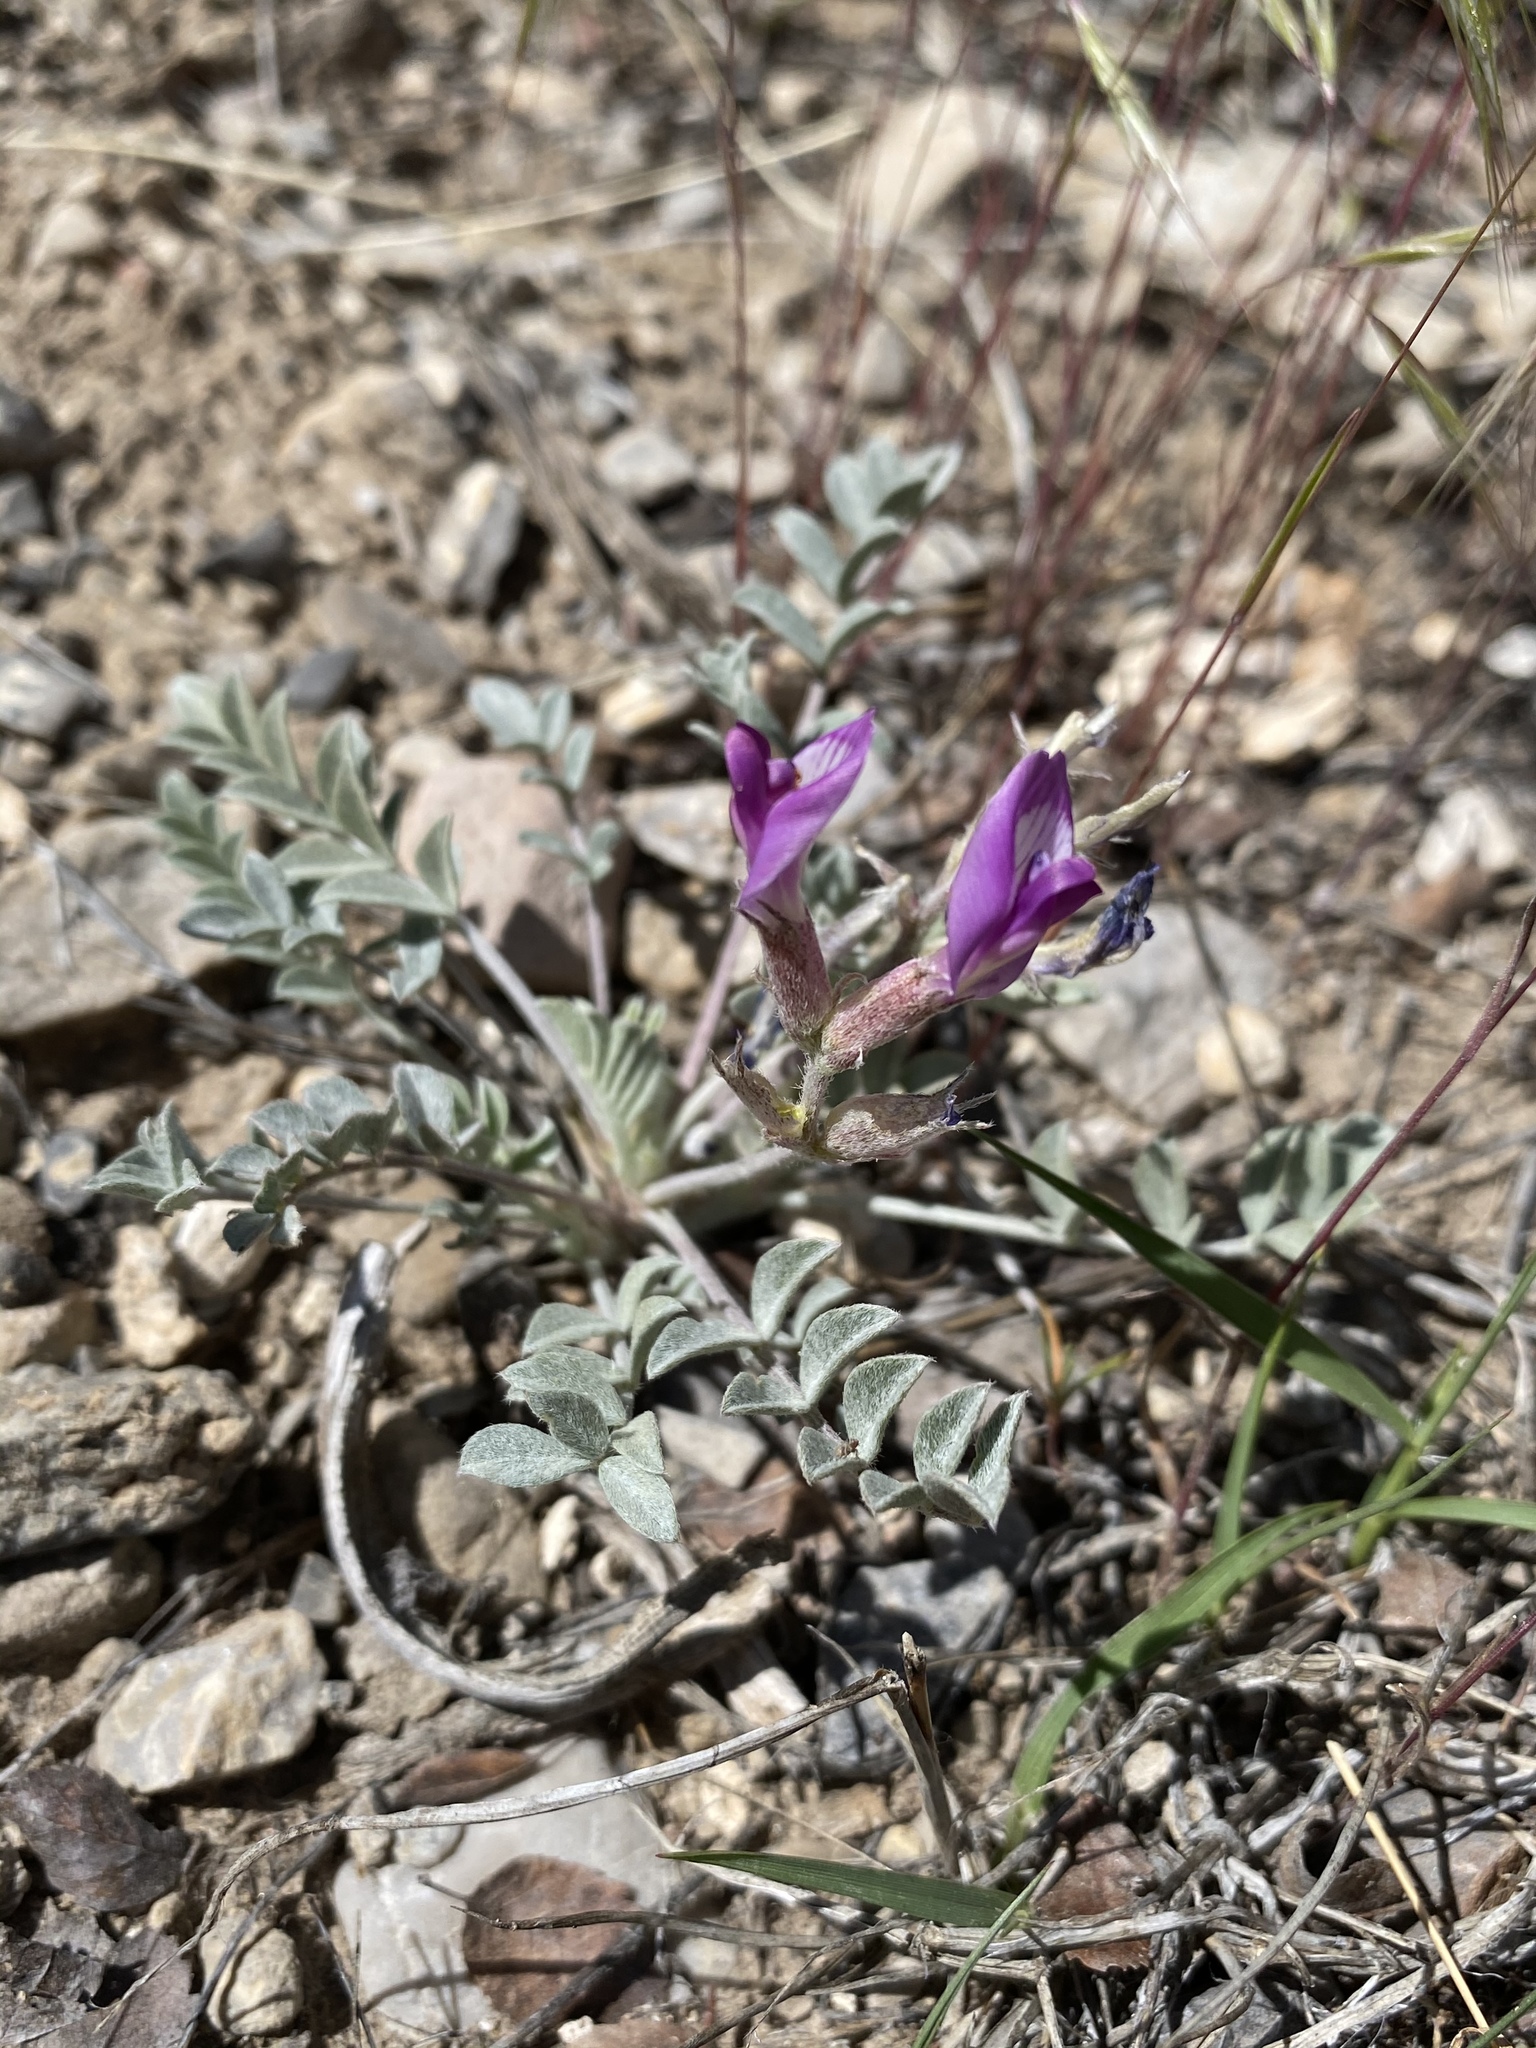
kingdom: Plantae
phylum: Tracheophyta
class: Magnoliopsida
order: Fabales
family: Fabaceae
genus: Astragalus
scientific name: Astragalus newberryi
